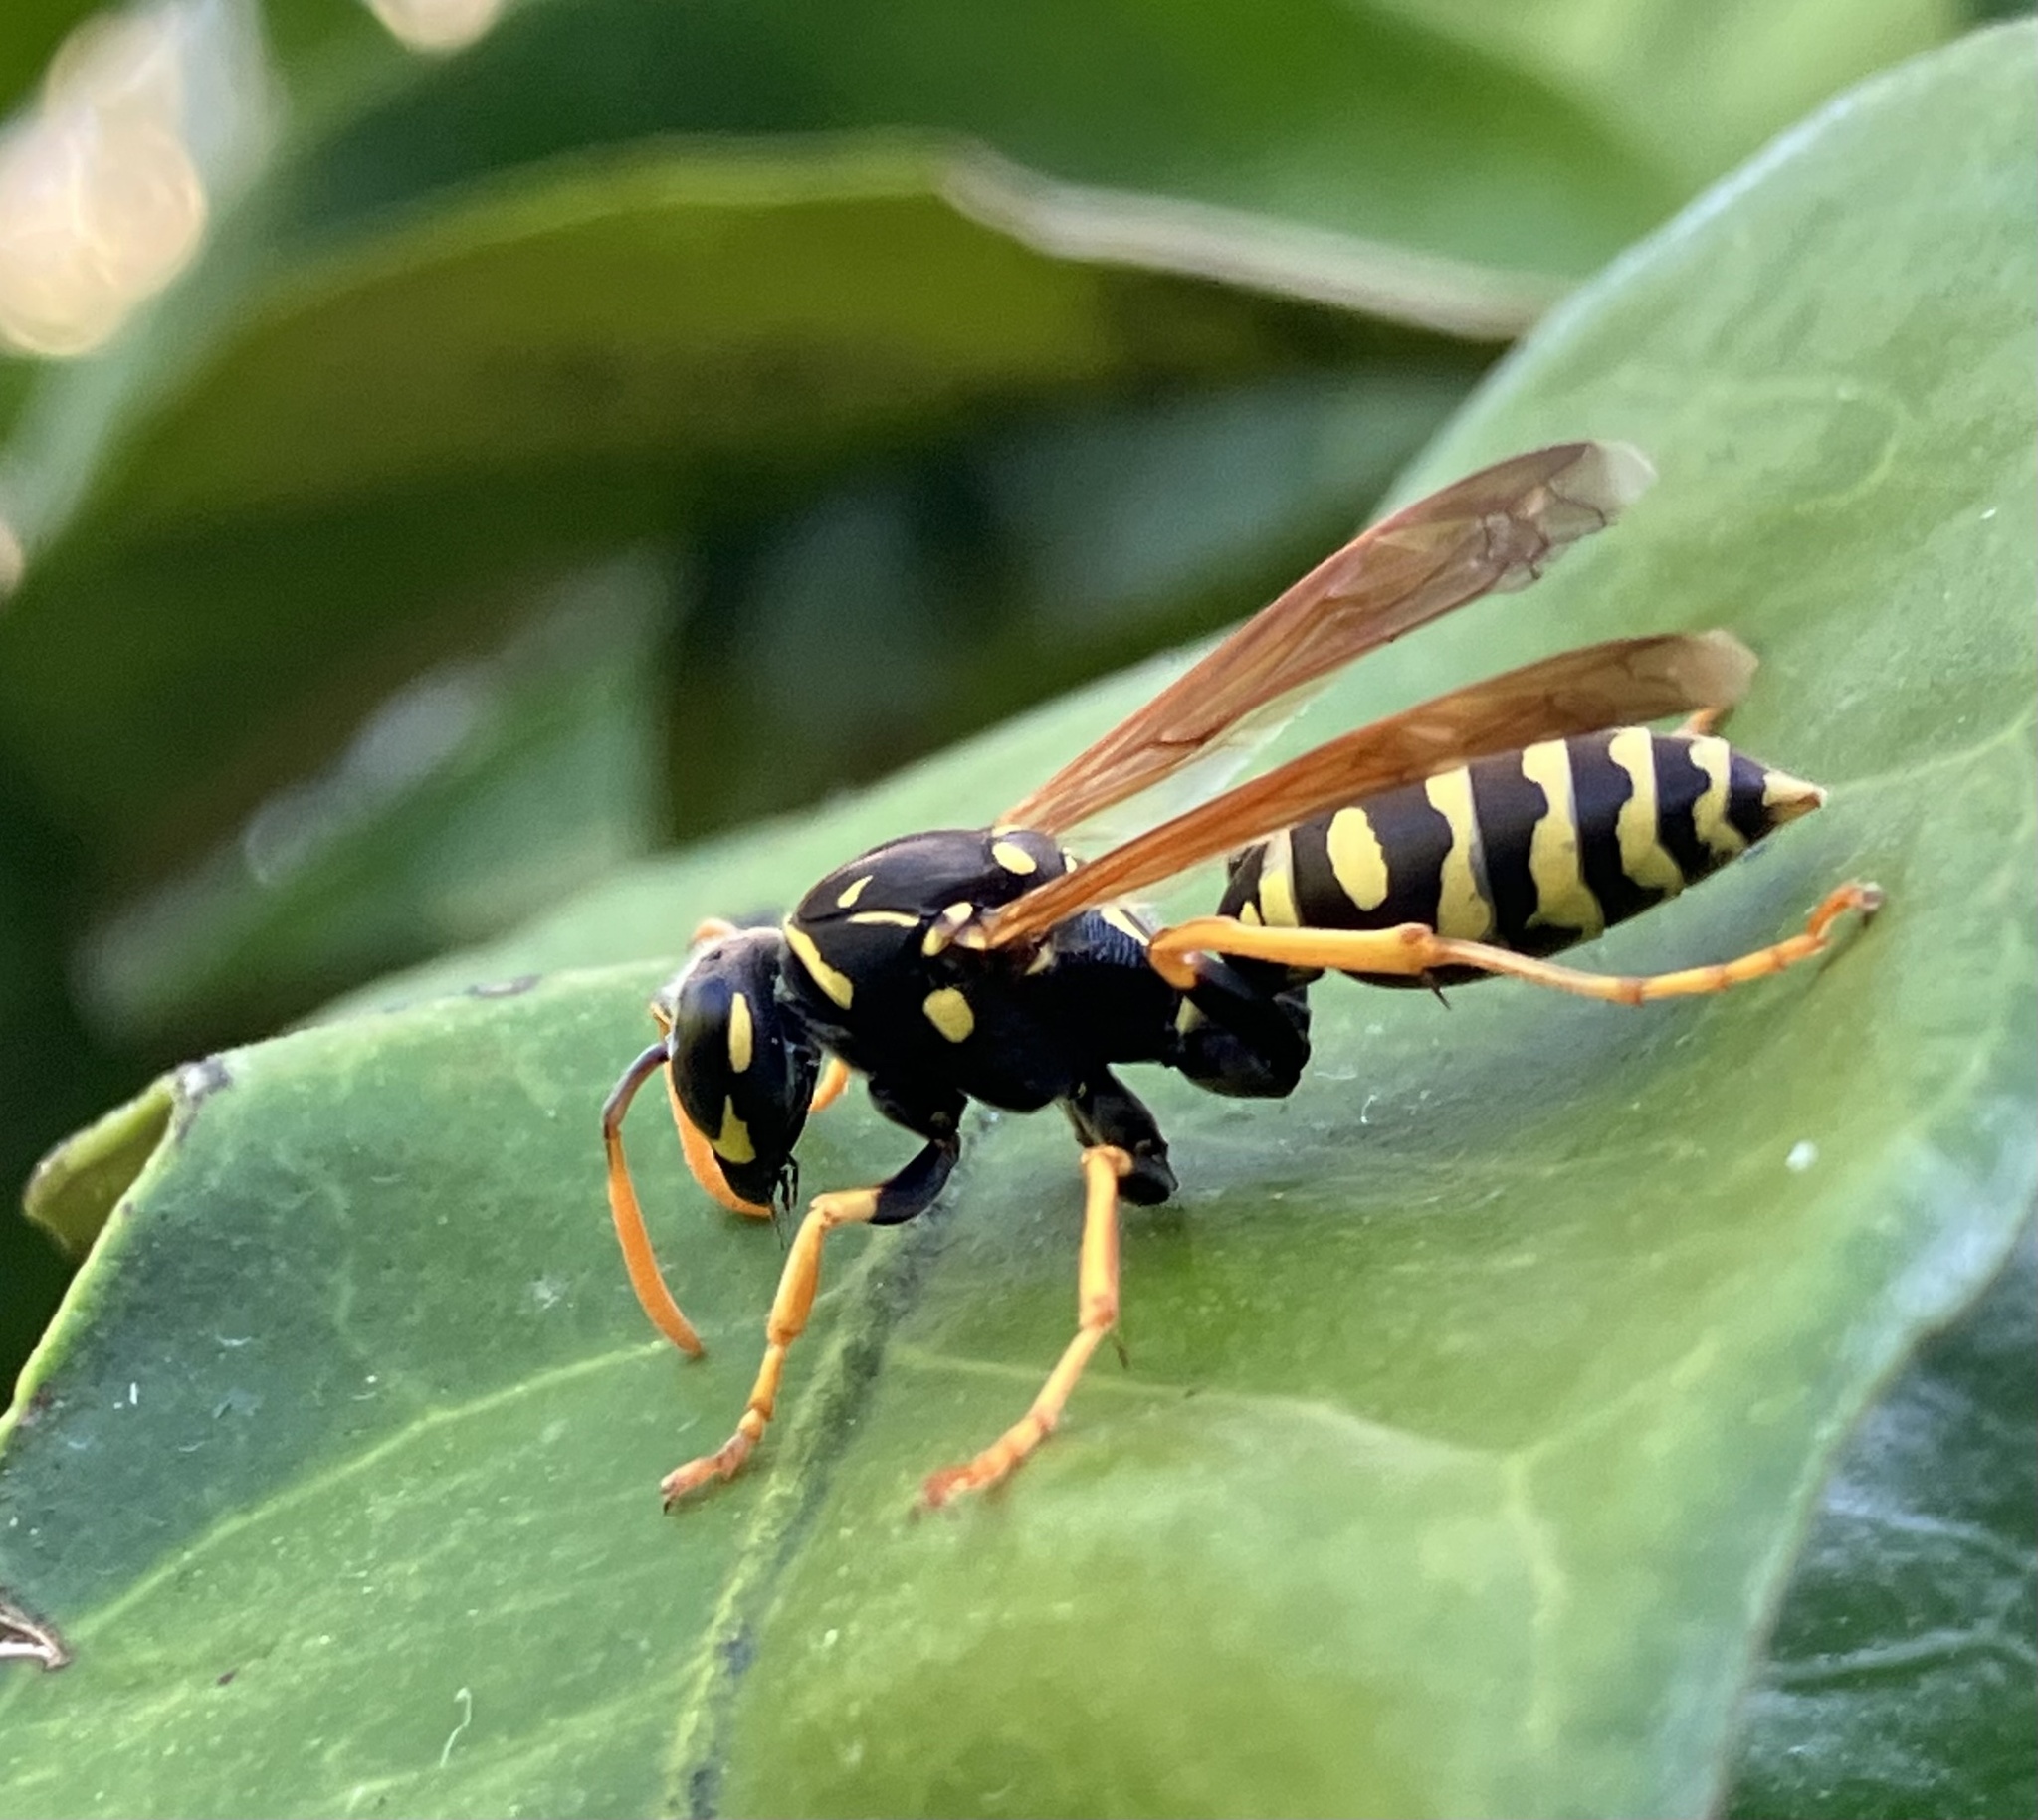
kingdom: Animalia
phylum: Arthropoda
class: Insecta
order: Hymenoptera
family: Eumenidae
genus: Polistes
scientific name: Polistes dominula
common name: Paper wasp
